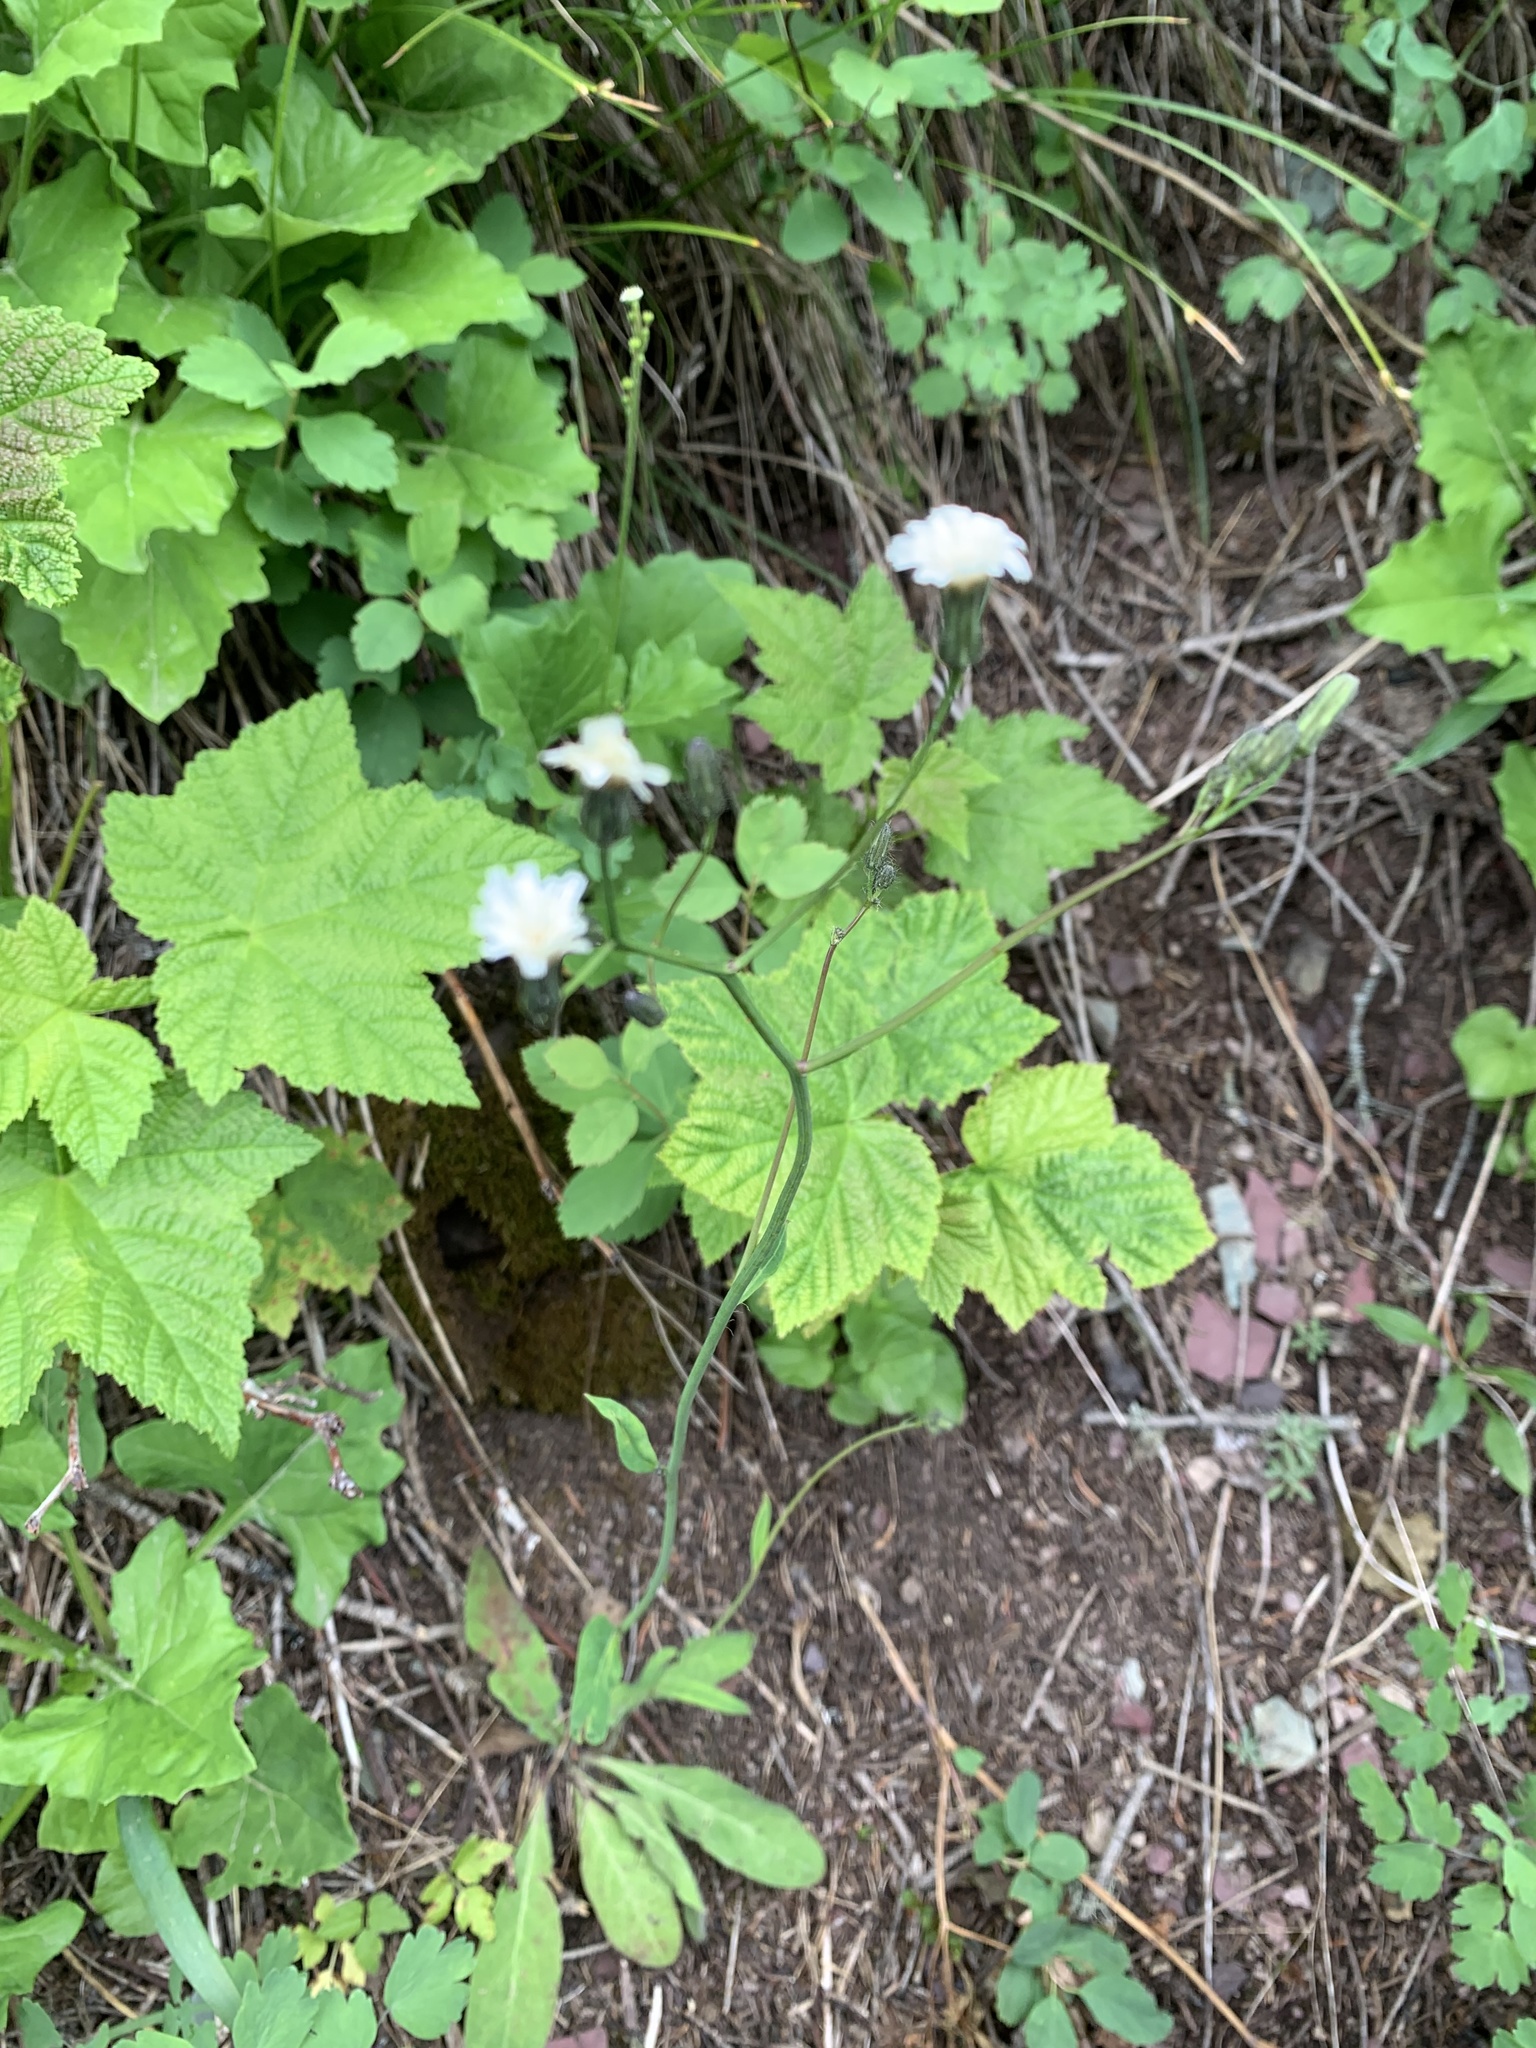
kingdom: Plantae
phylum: Tracheophyta
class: Magnoliopsida
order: Asterales
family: Asteraceae
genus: Hieracium
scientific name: Hieracium albiflorum
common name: White hawkweed
